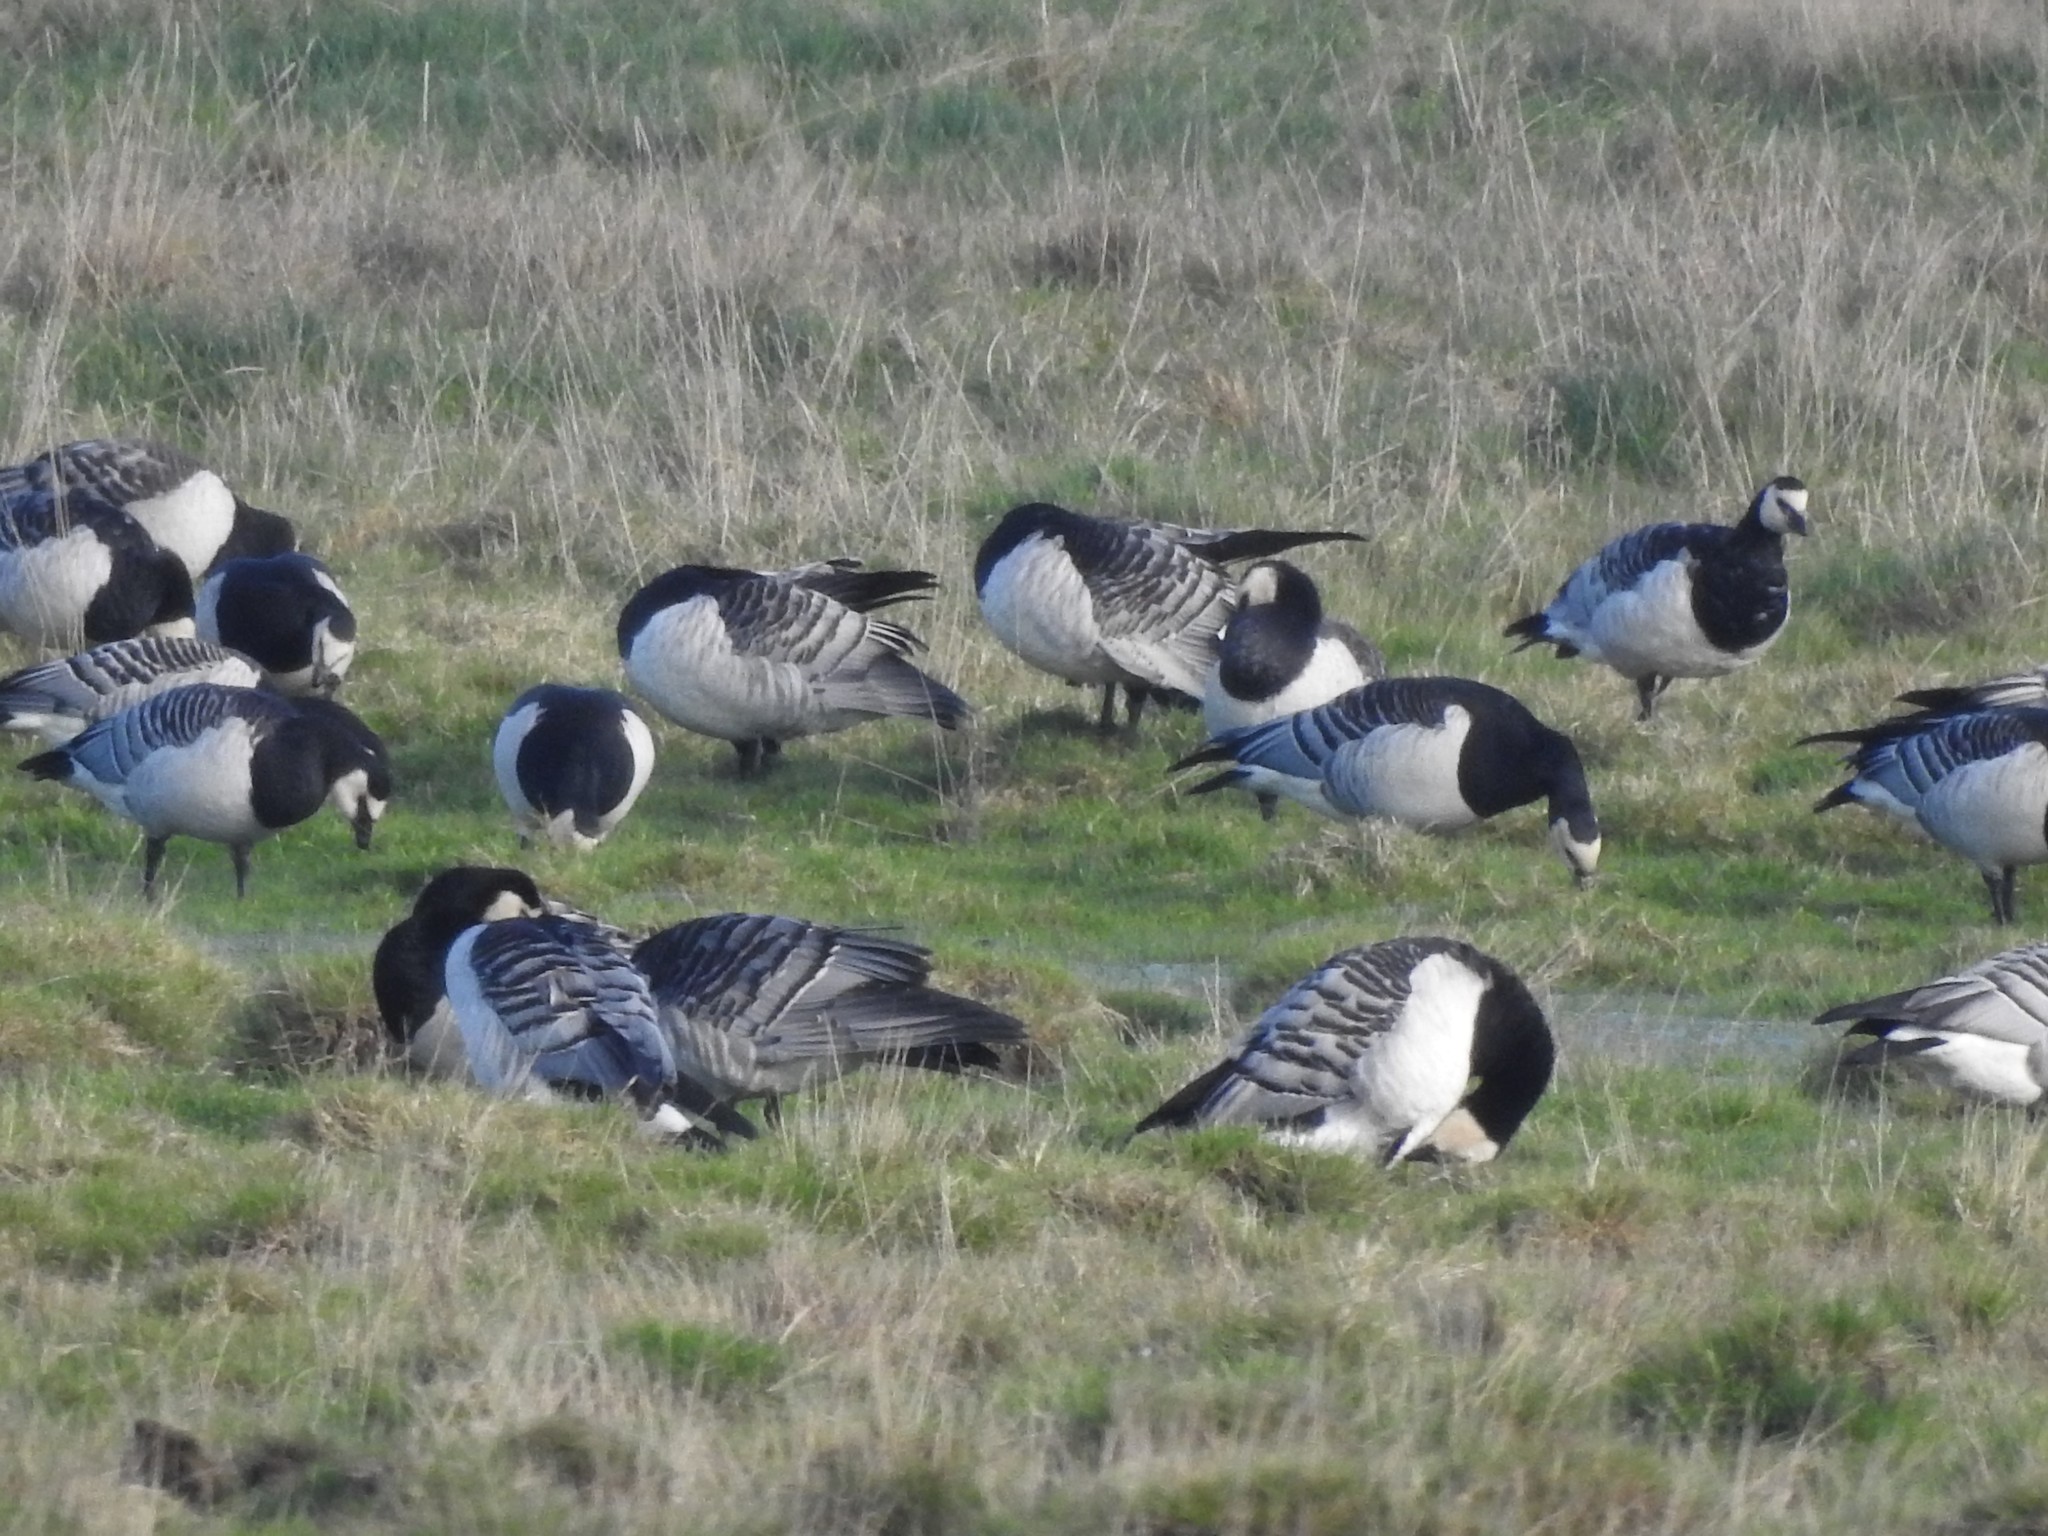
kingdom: Animalia
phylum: Chordata
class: Aves
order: Anseriformes
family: Anatidae
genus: Branta
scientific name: Branta leucopsis
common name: Barnacle goose
